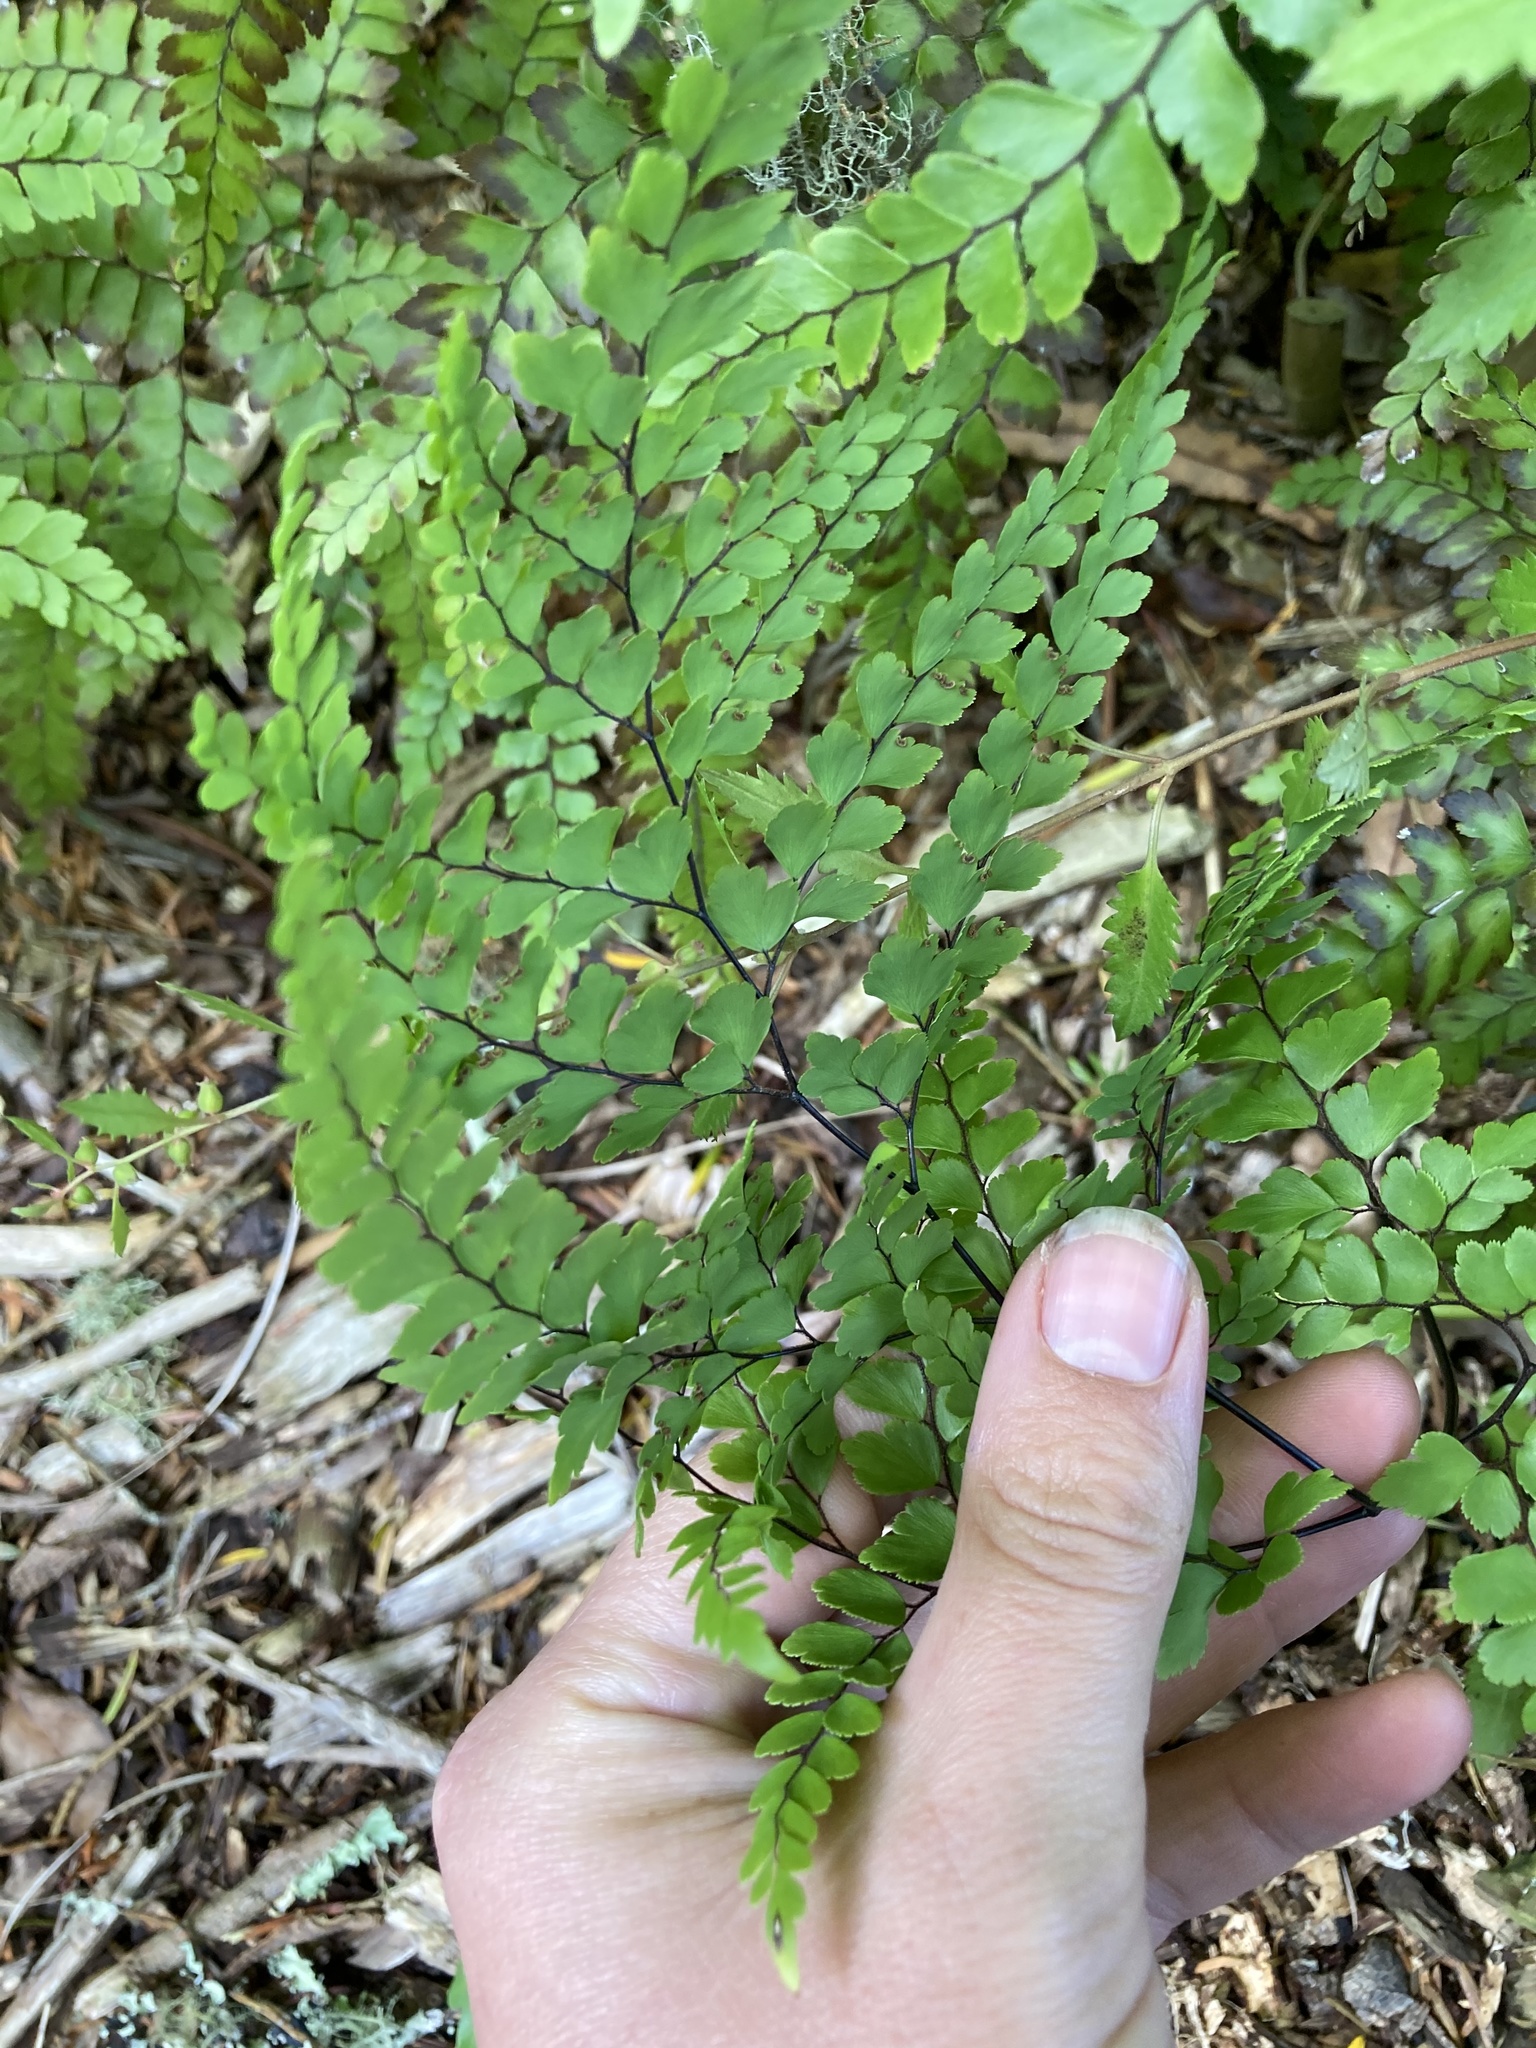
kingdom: Plantae
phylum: Tracheophyta
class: Polypodiopsida
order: Polypodiales
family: Pteridaceae
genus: Adiantum
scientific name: Adiantum formosum
